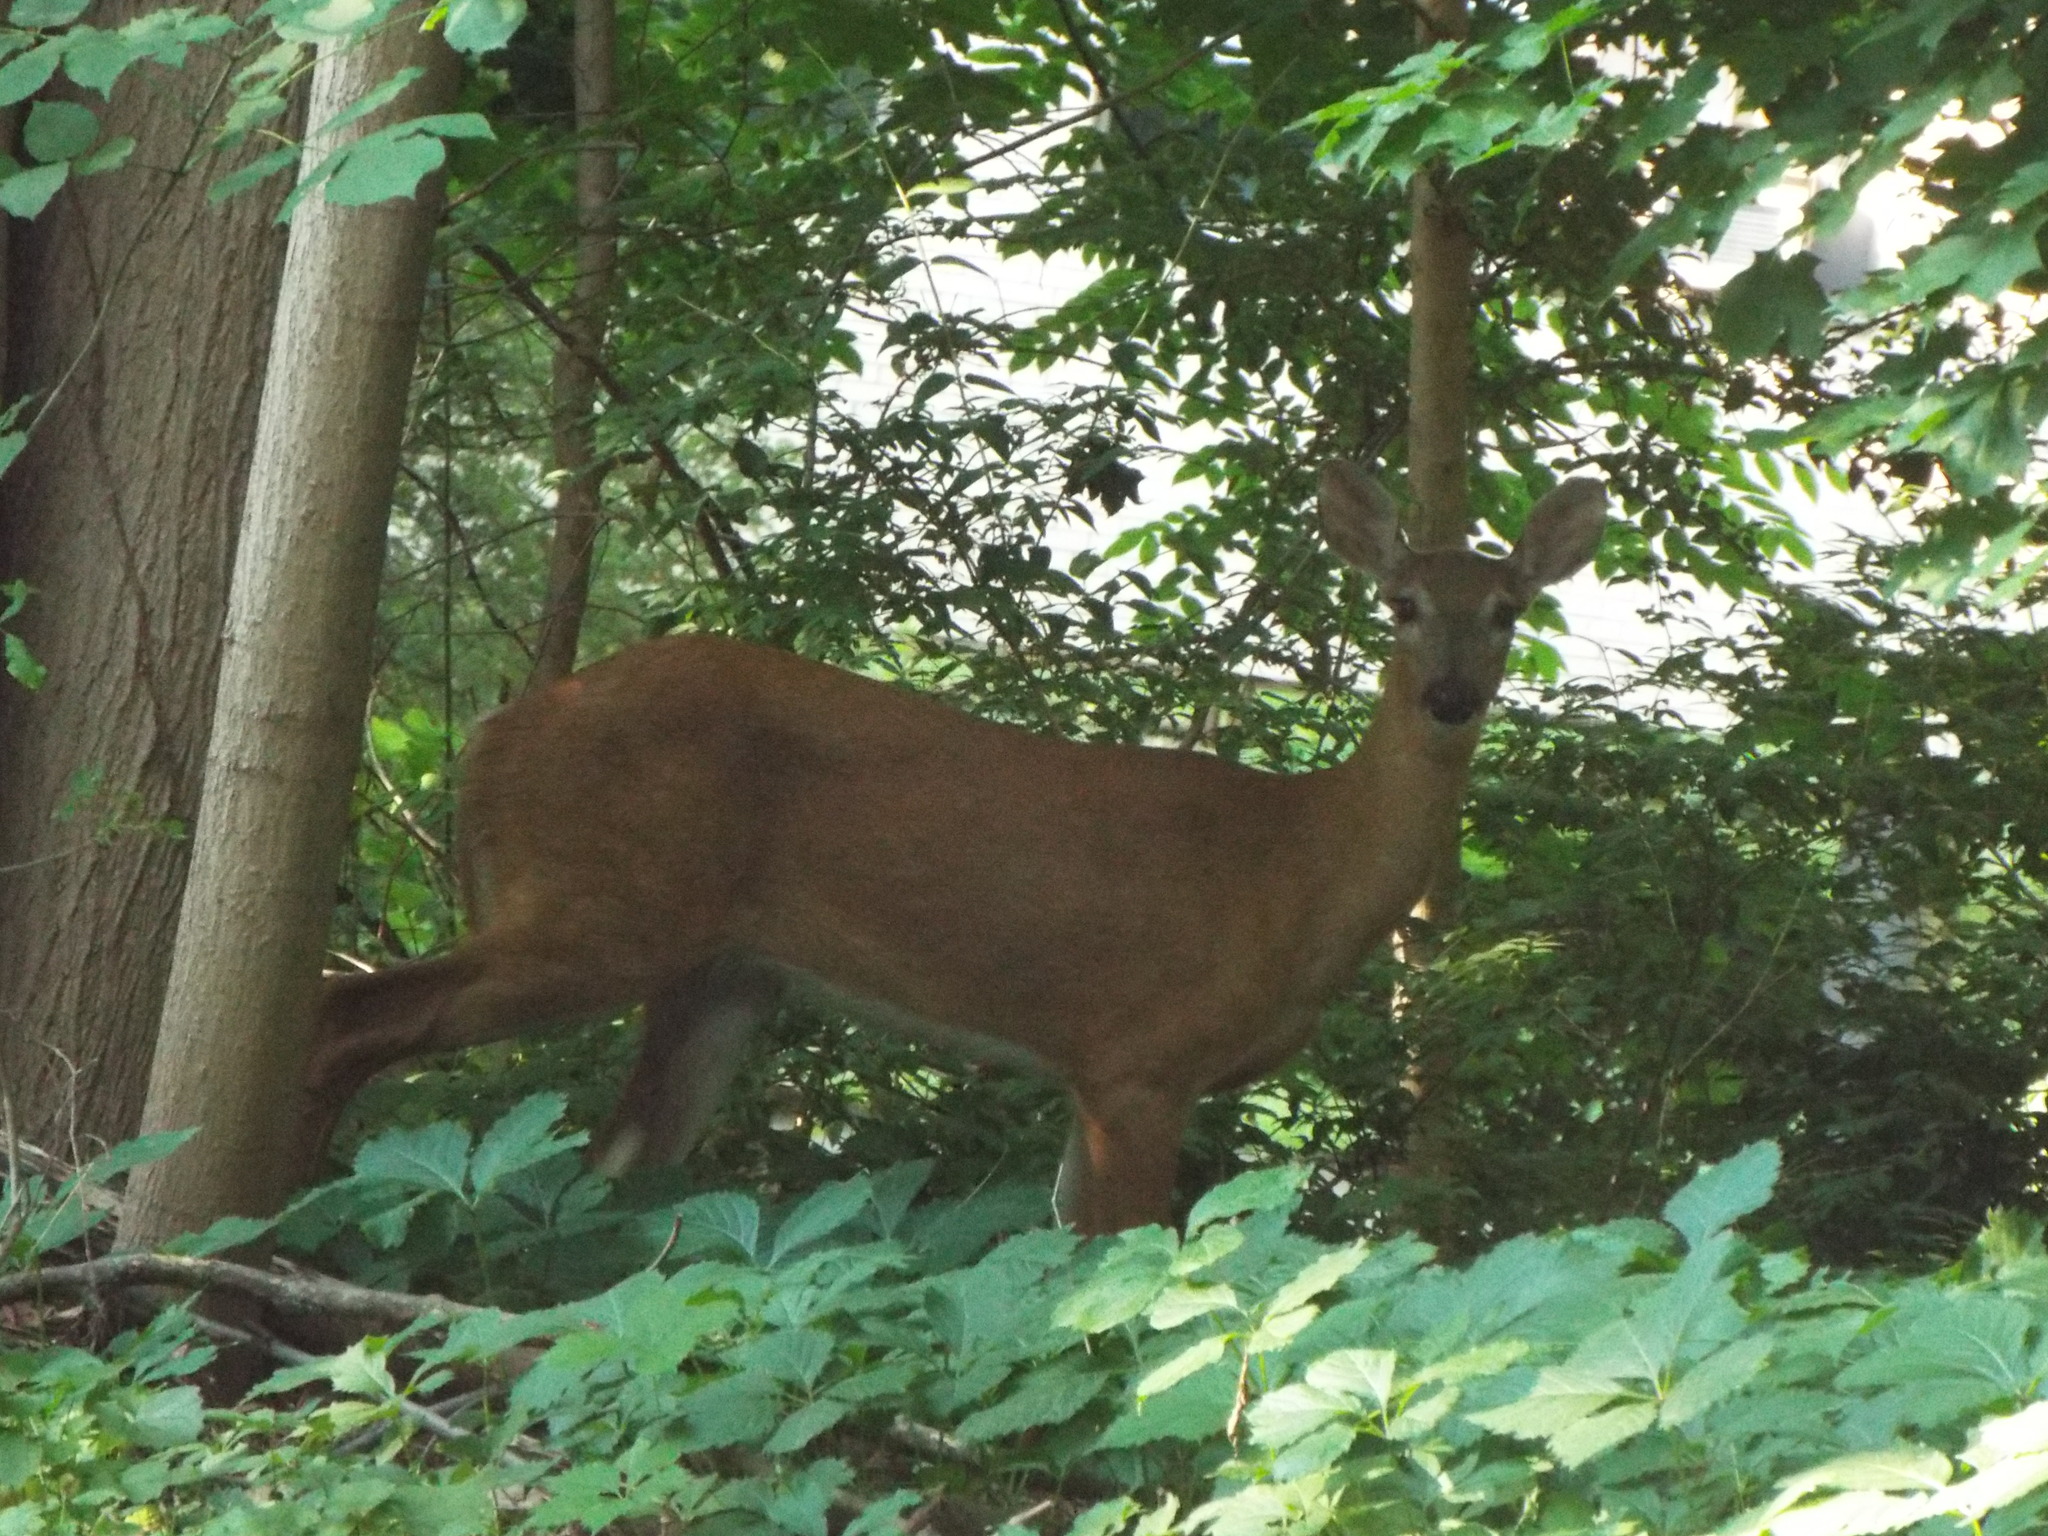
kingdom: Animalia
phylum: Chordata
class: Mammalia
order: Artiodactyla
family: Cervidae
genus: Odocoileus
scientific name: Odocoileus virginianus
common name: White-tailed deer
